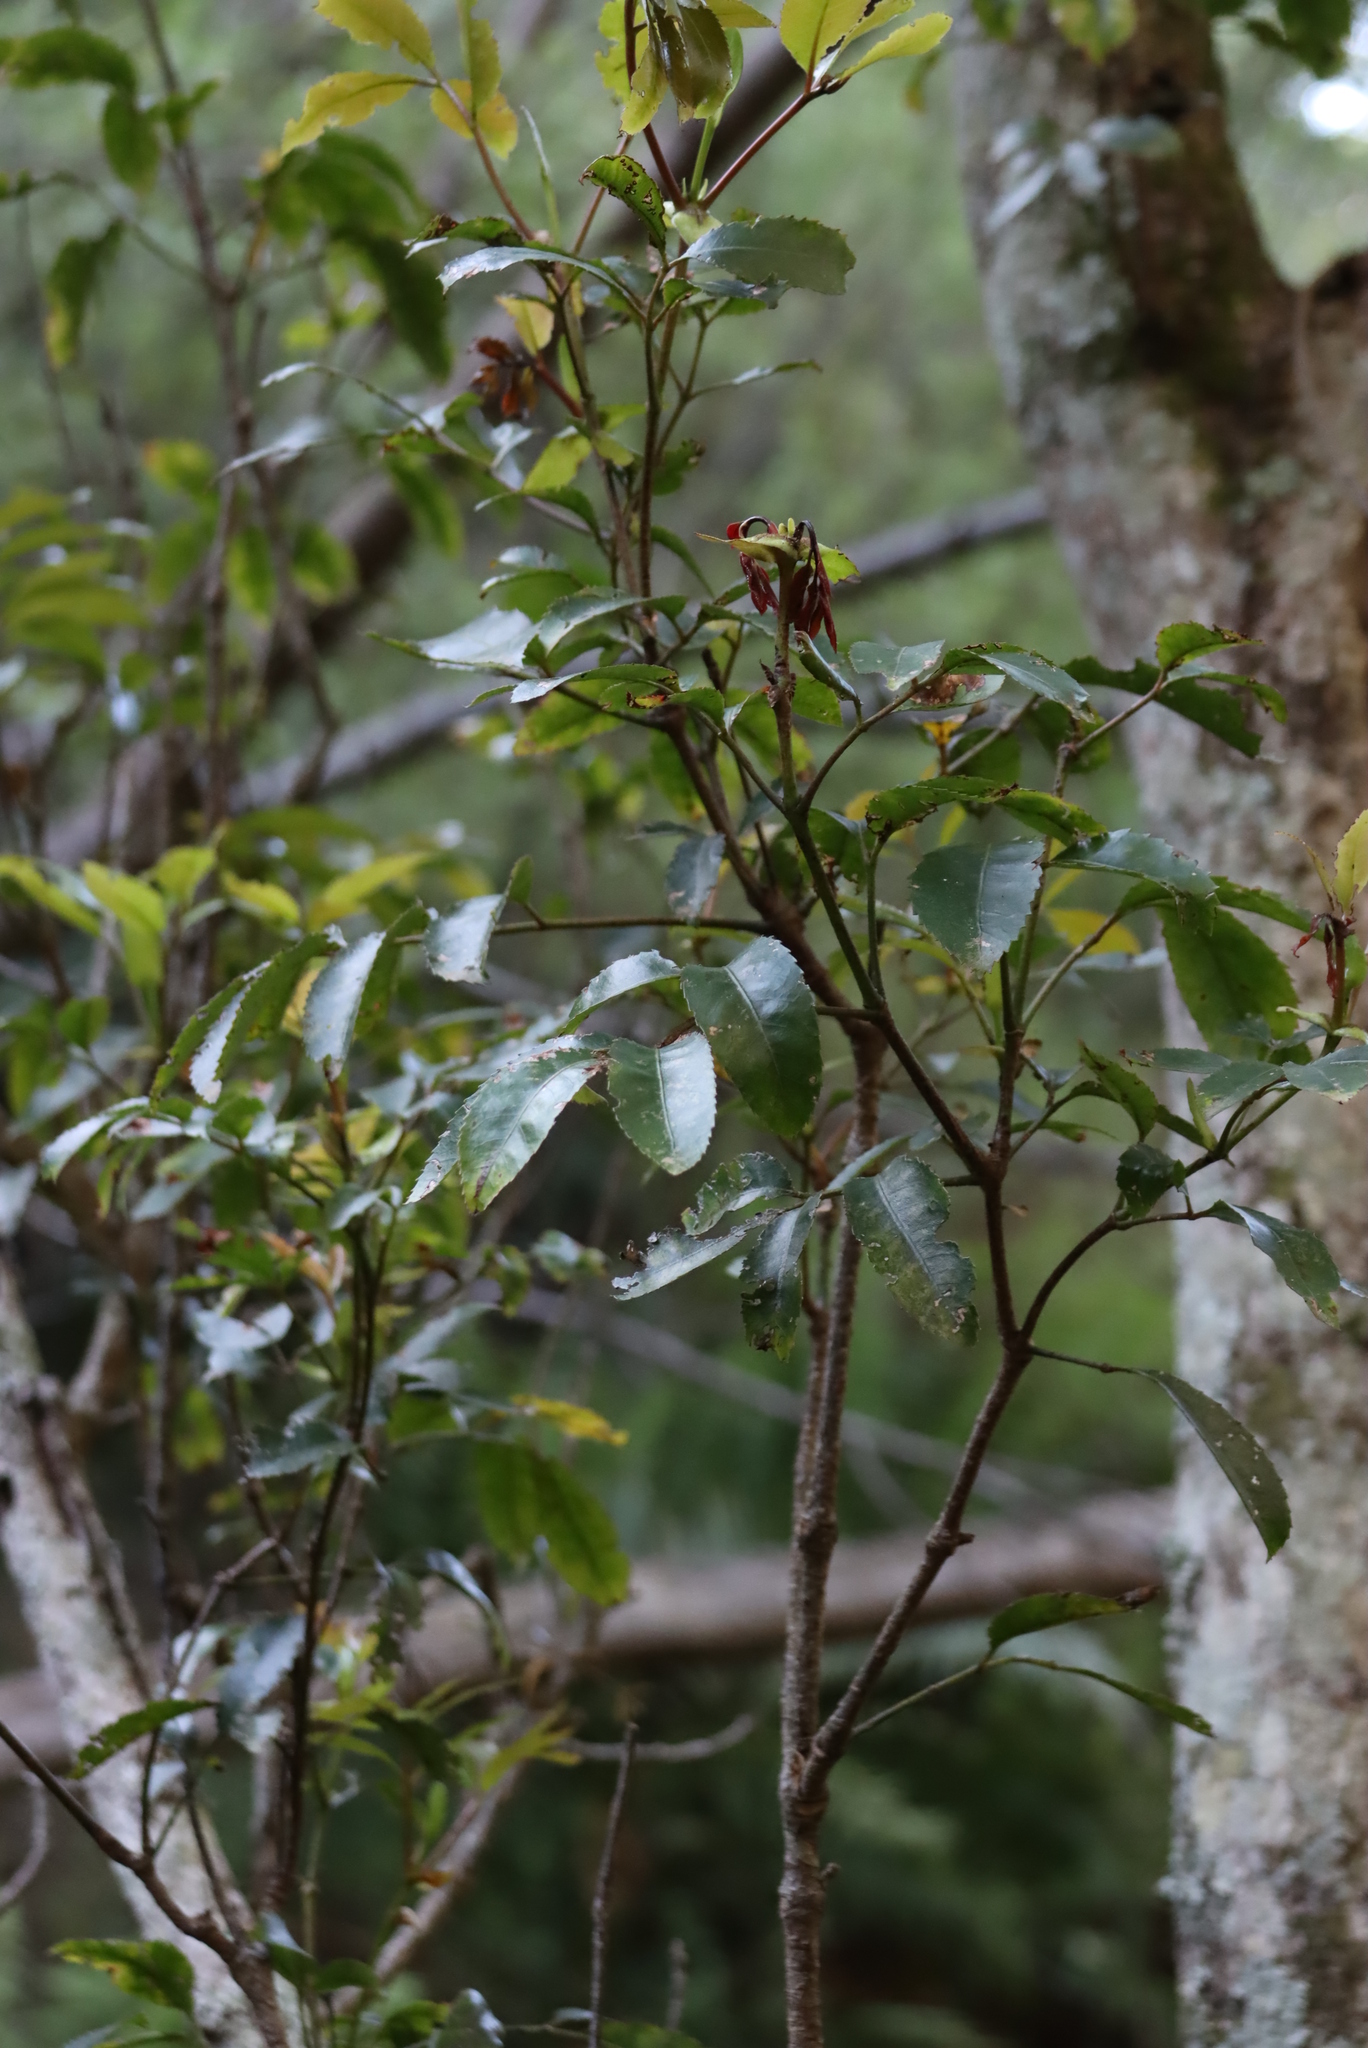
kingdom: Plantae
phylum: Tracheophyta
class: Magnoliopsida
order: Oxalidales
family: Cunoniaceae
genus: Cunonia
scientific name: Cunonia capensis
